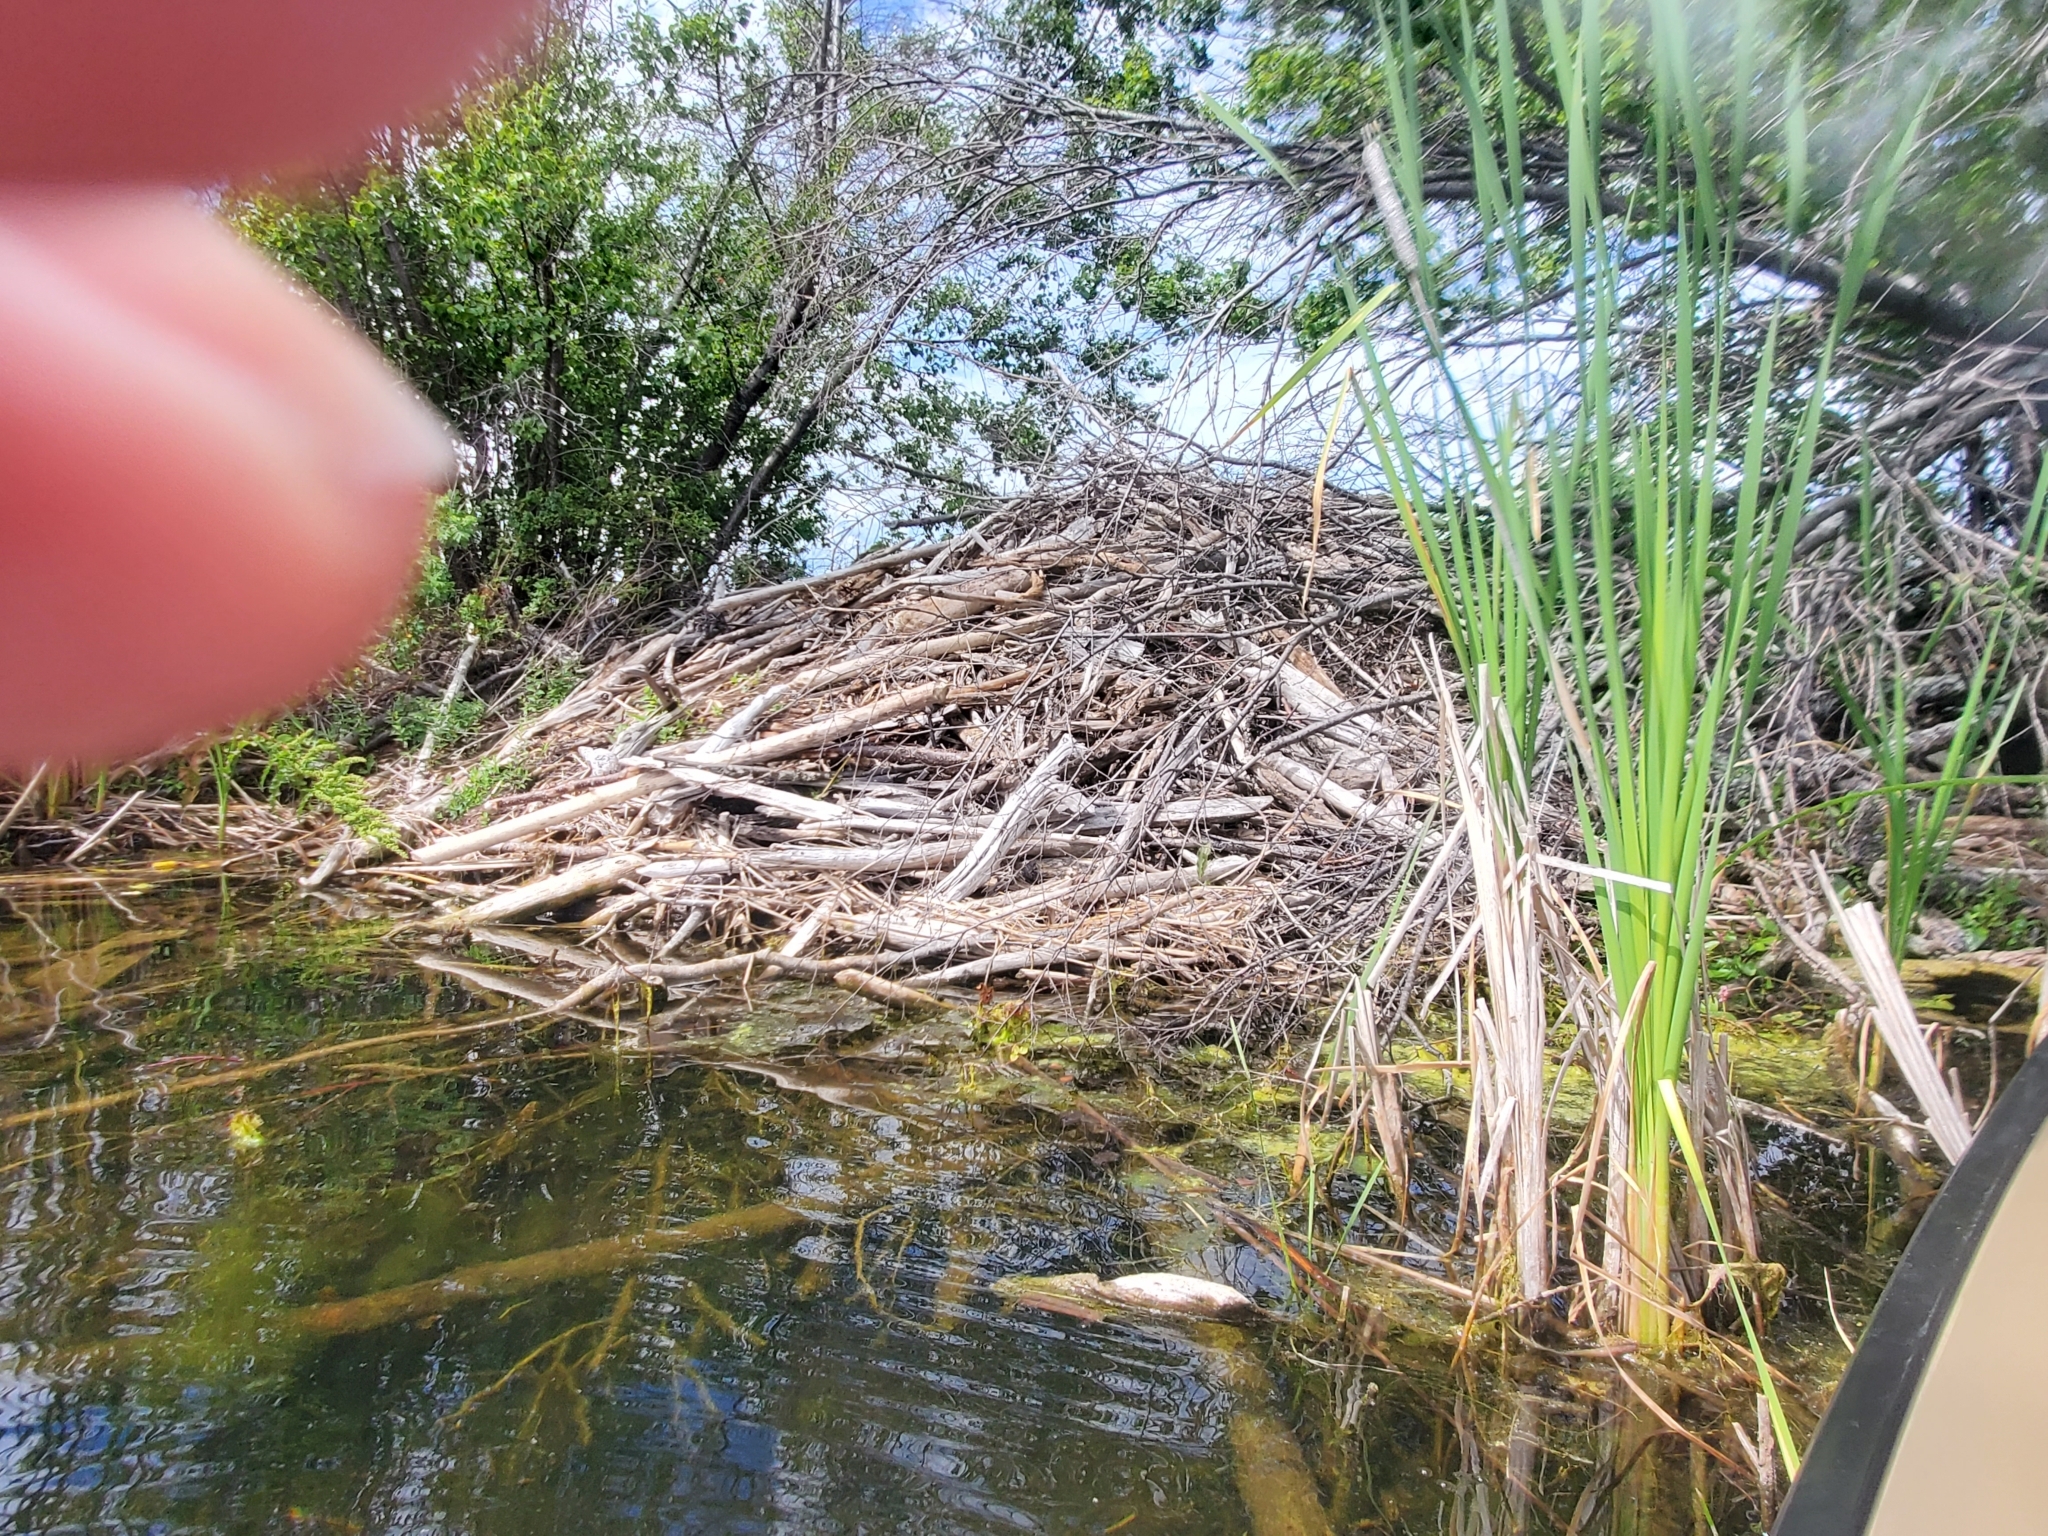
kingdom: Animalia
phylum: Chordata
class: Mammalia
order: Rodentia
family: Castoridae
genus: Castor
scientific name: Castor canadensis
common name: American beaver
